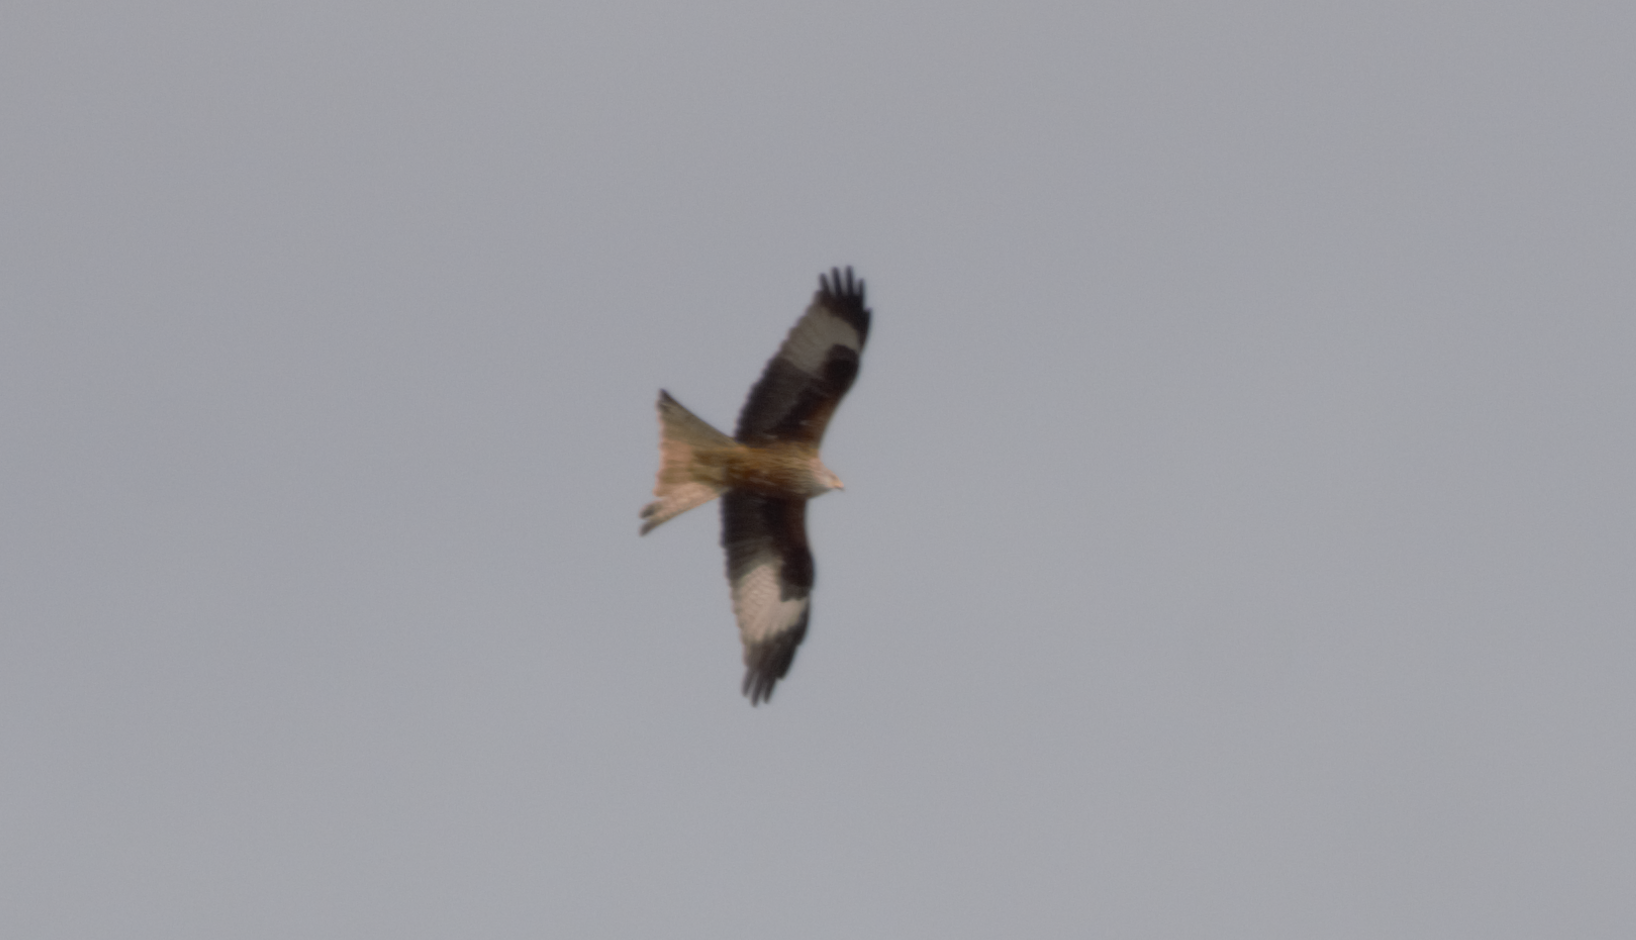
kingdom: Animalia
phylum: Chordata
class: Aves
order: Accipitriformes
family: Accipitridae
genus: Milvus
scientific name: Milvus milvus
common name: Red kite
